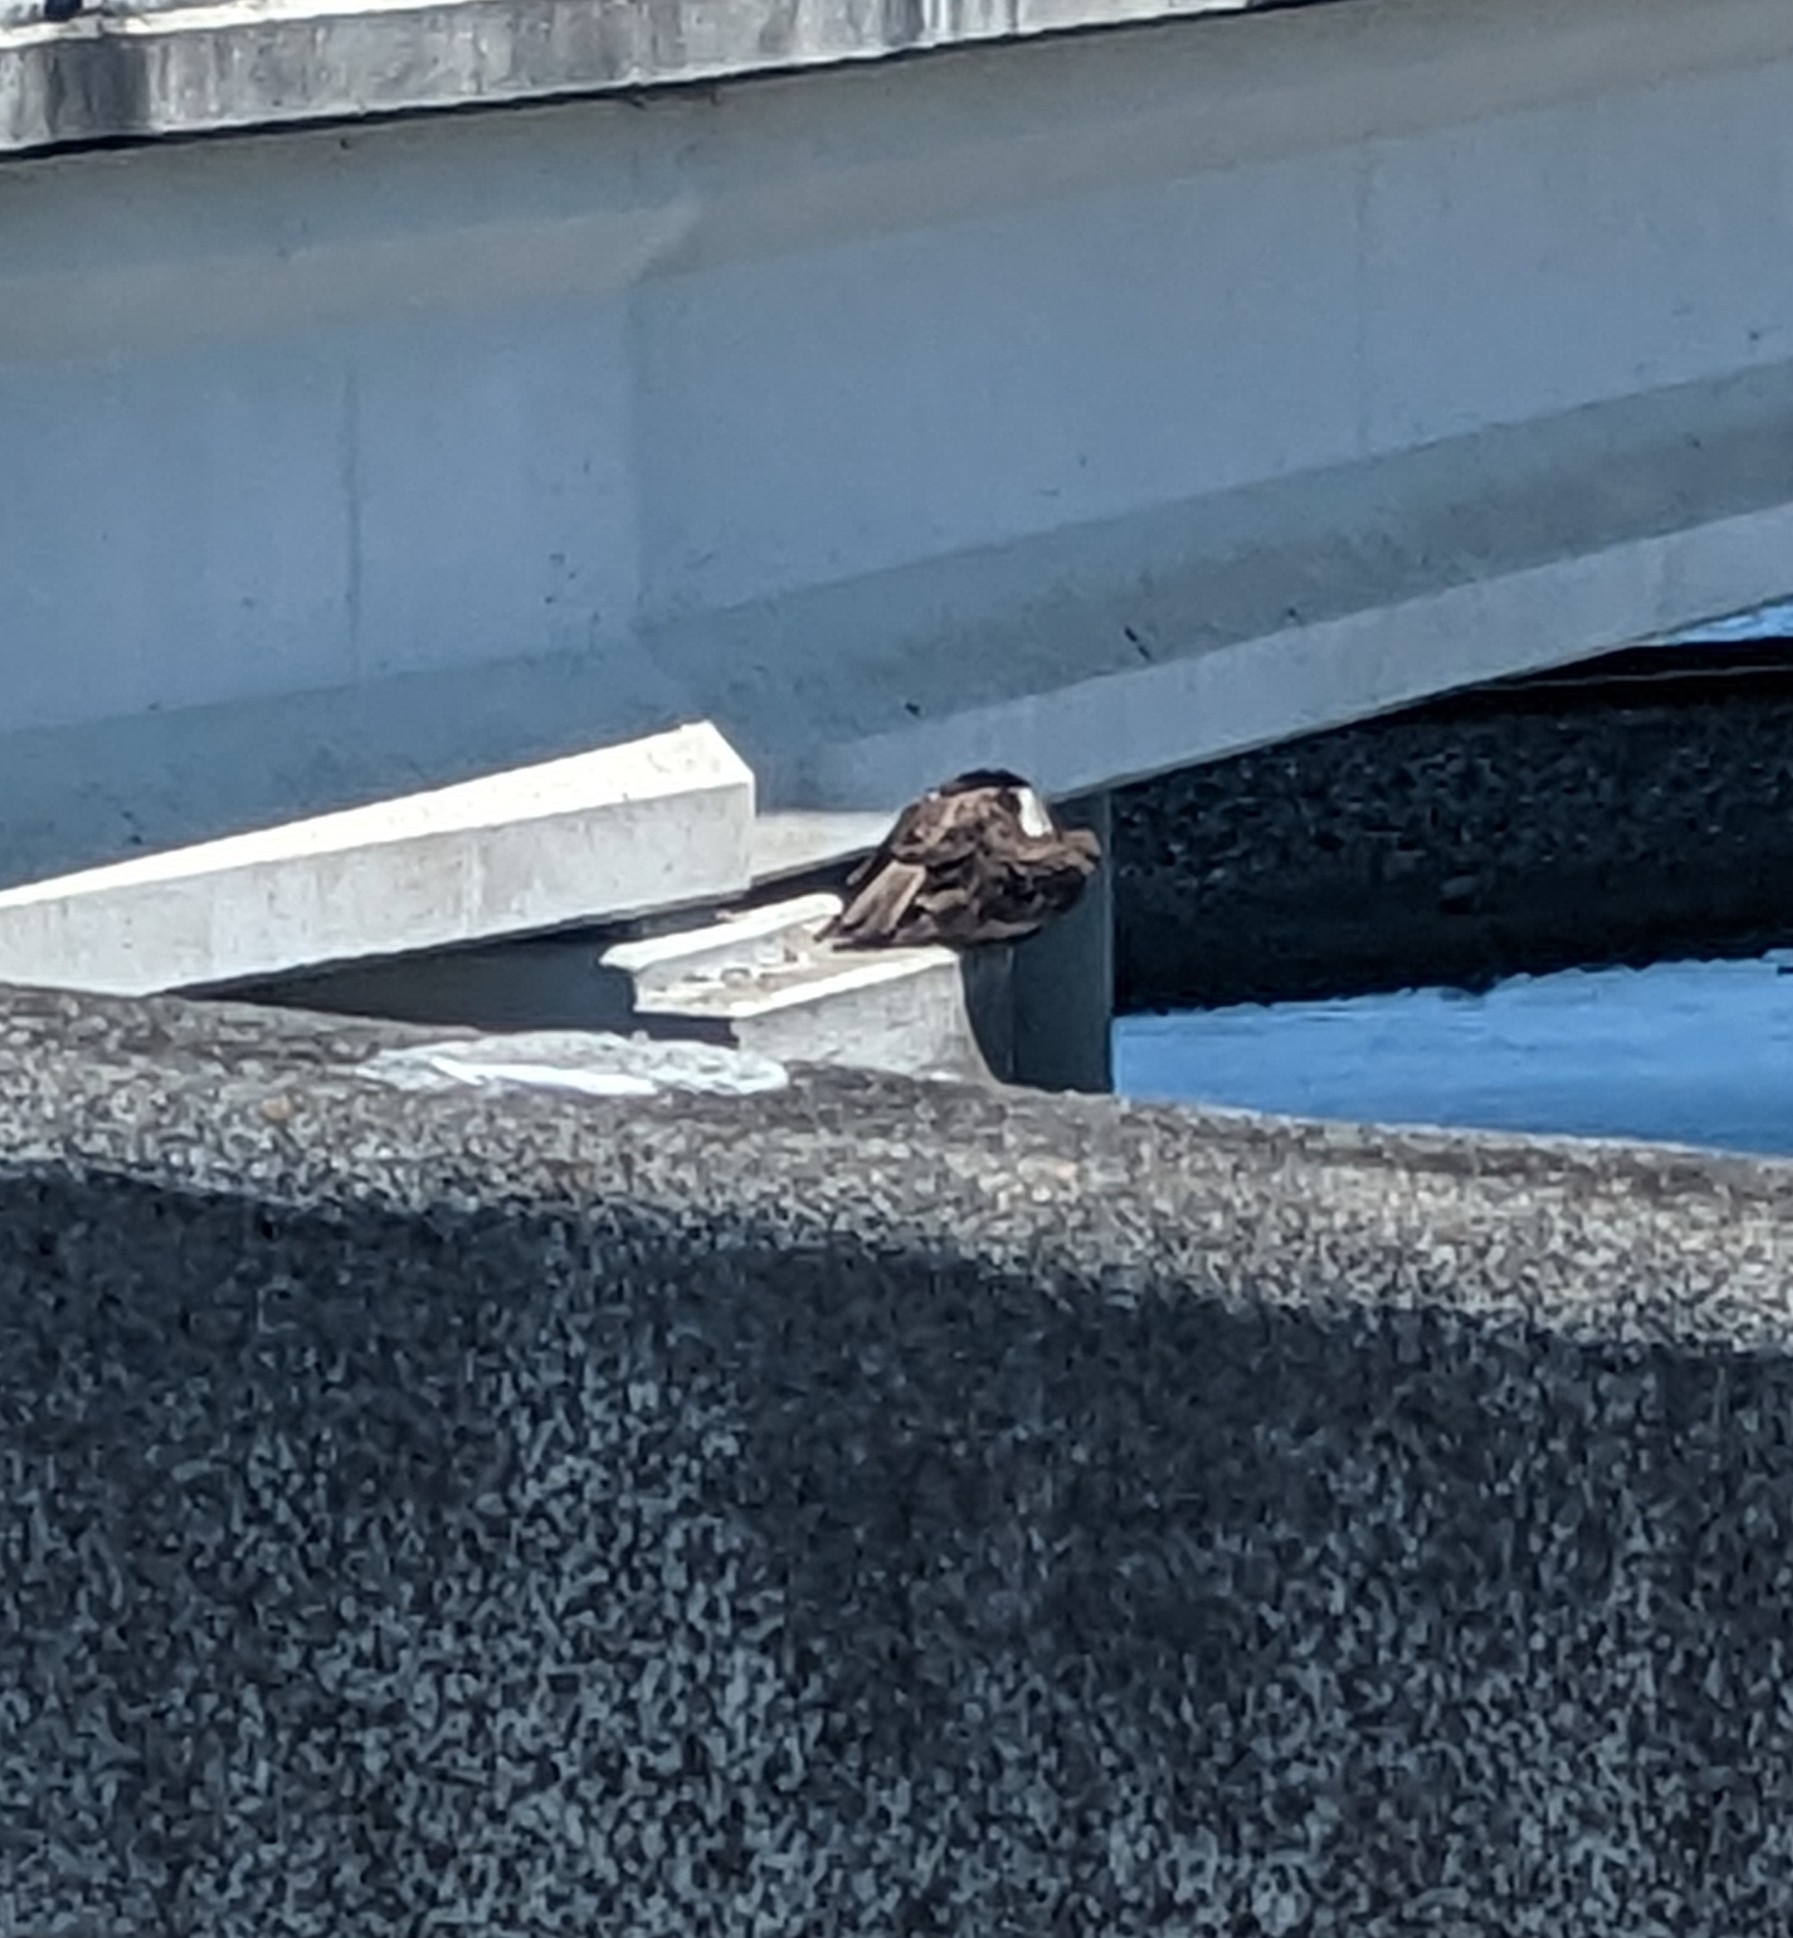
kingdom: Animalia
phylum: Chordata
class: Aves
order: Accipitriformes
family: Pandionidae
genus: Pandion
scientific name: Pandion haliaetus
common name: Osprey
